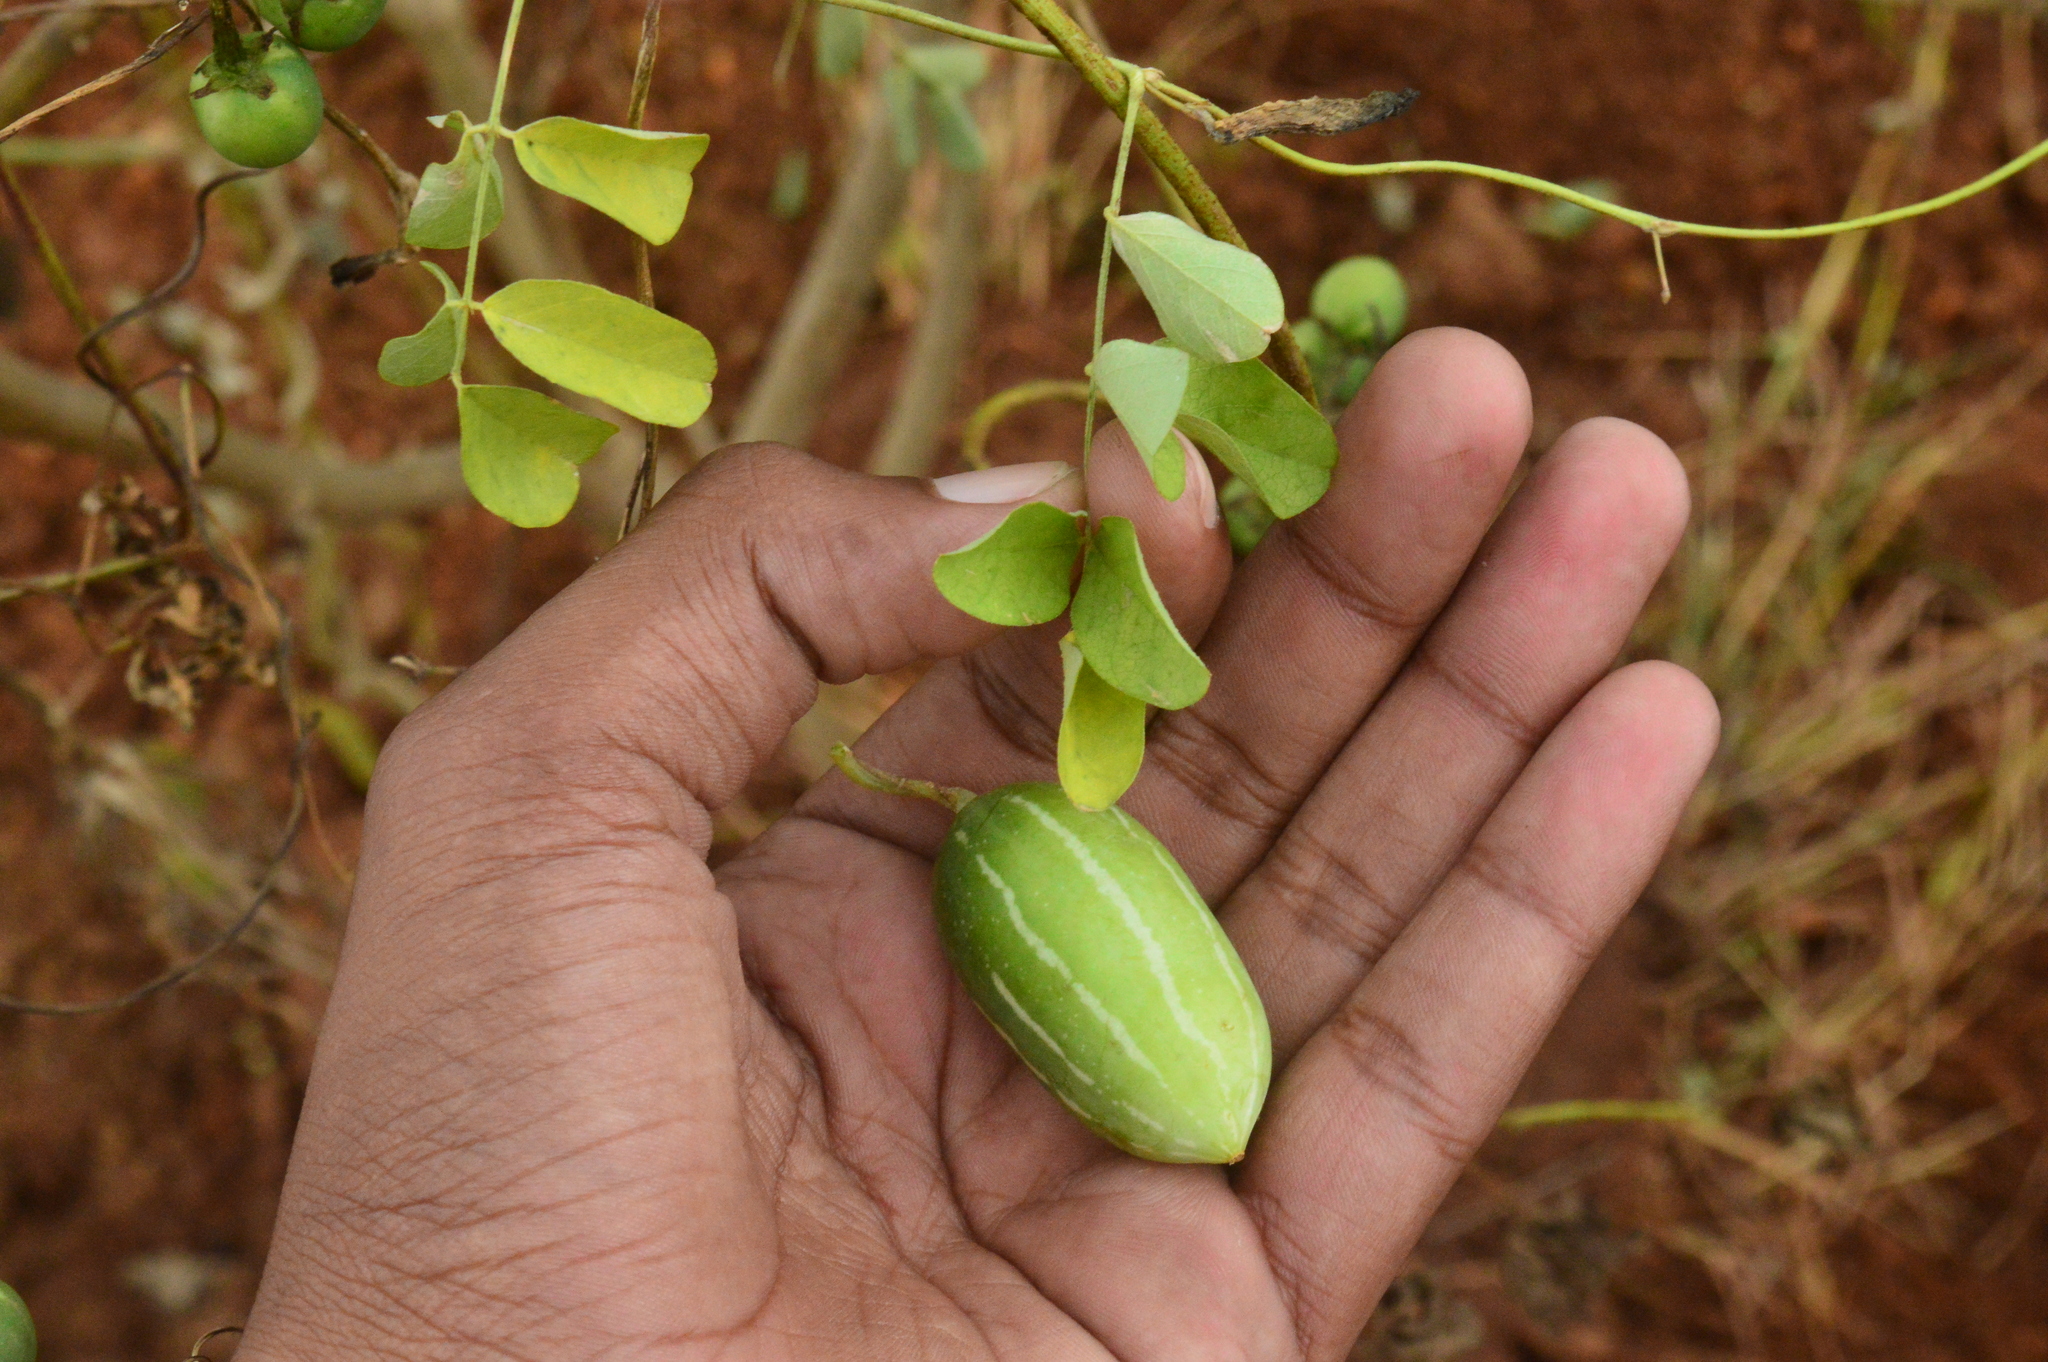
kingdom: Plantae
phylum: Tracheophyta
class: Magnoliopsida
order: Cucurbitales
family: Cucurbitaceae
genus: Coccinia
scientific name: Coccinia grandis
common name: Ivy gourd
